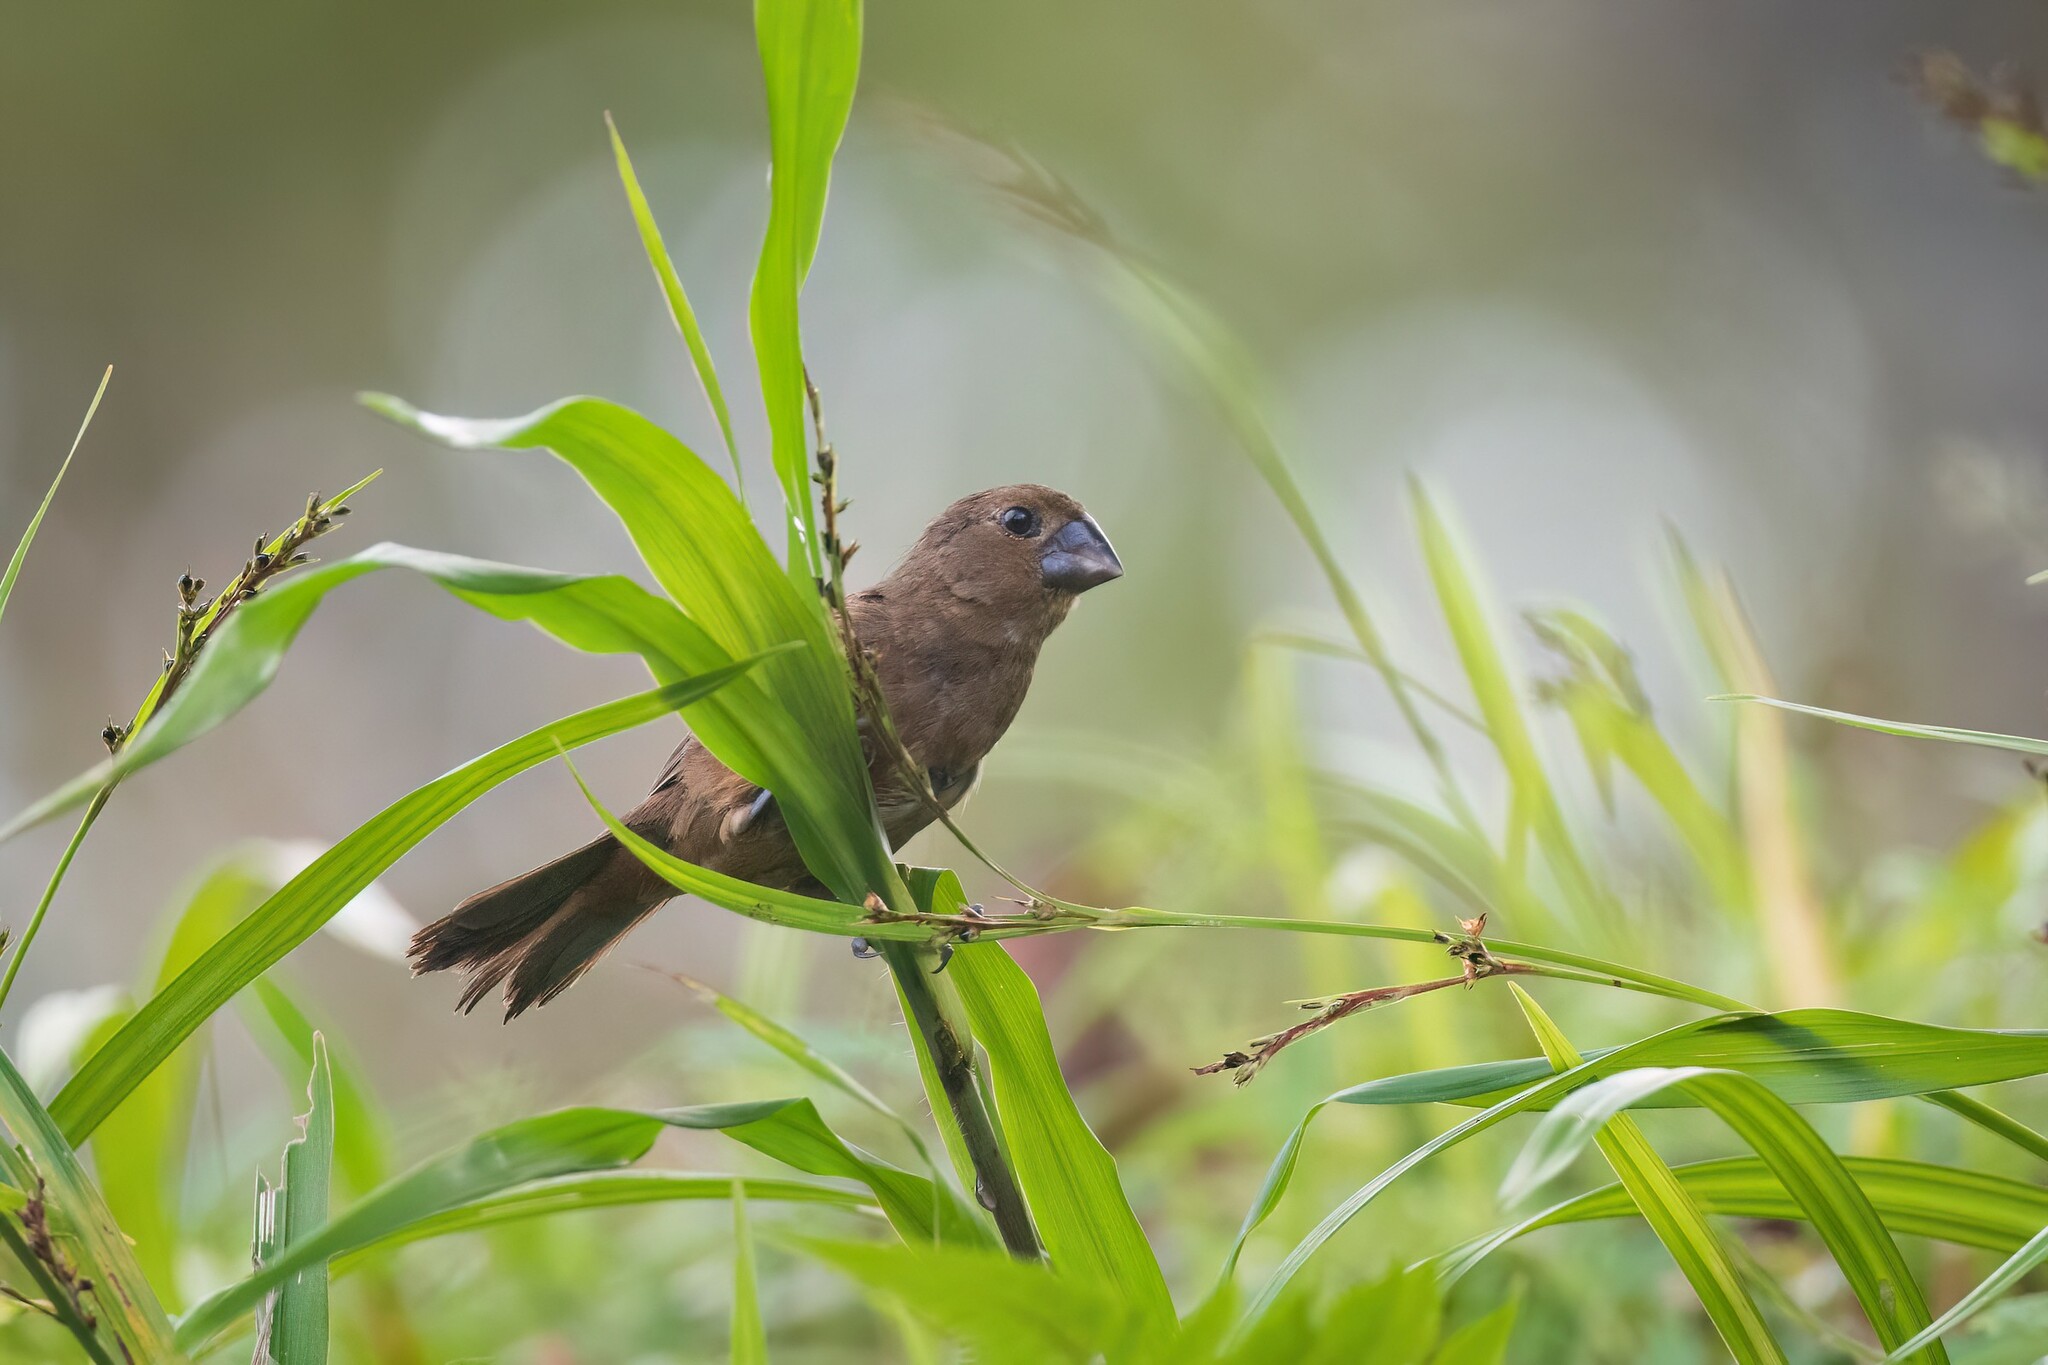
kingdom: Animalia
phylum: Chordata
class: Aves
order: Passeriformes
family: Thraupidae
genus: Sporophila
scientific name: Sporophila funerea
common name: Thick-billed seed-finch
